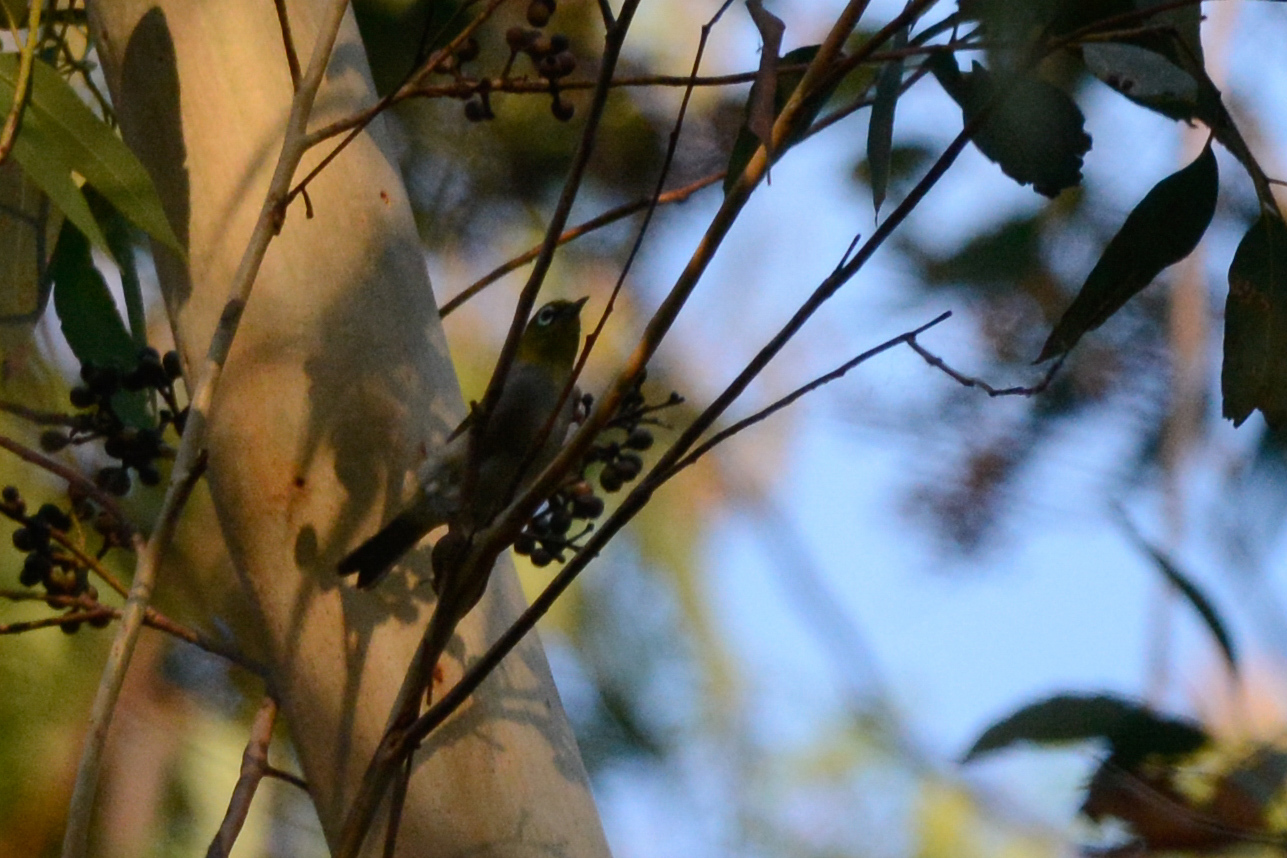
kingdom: Animalia
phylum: Chordata
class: Aves
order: Passeriformes
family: Zosteropidae
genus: Zosterops
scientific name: Zosterops lateralis
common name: Silvereye
